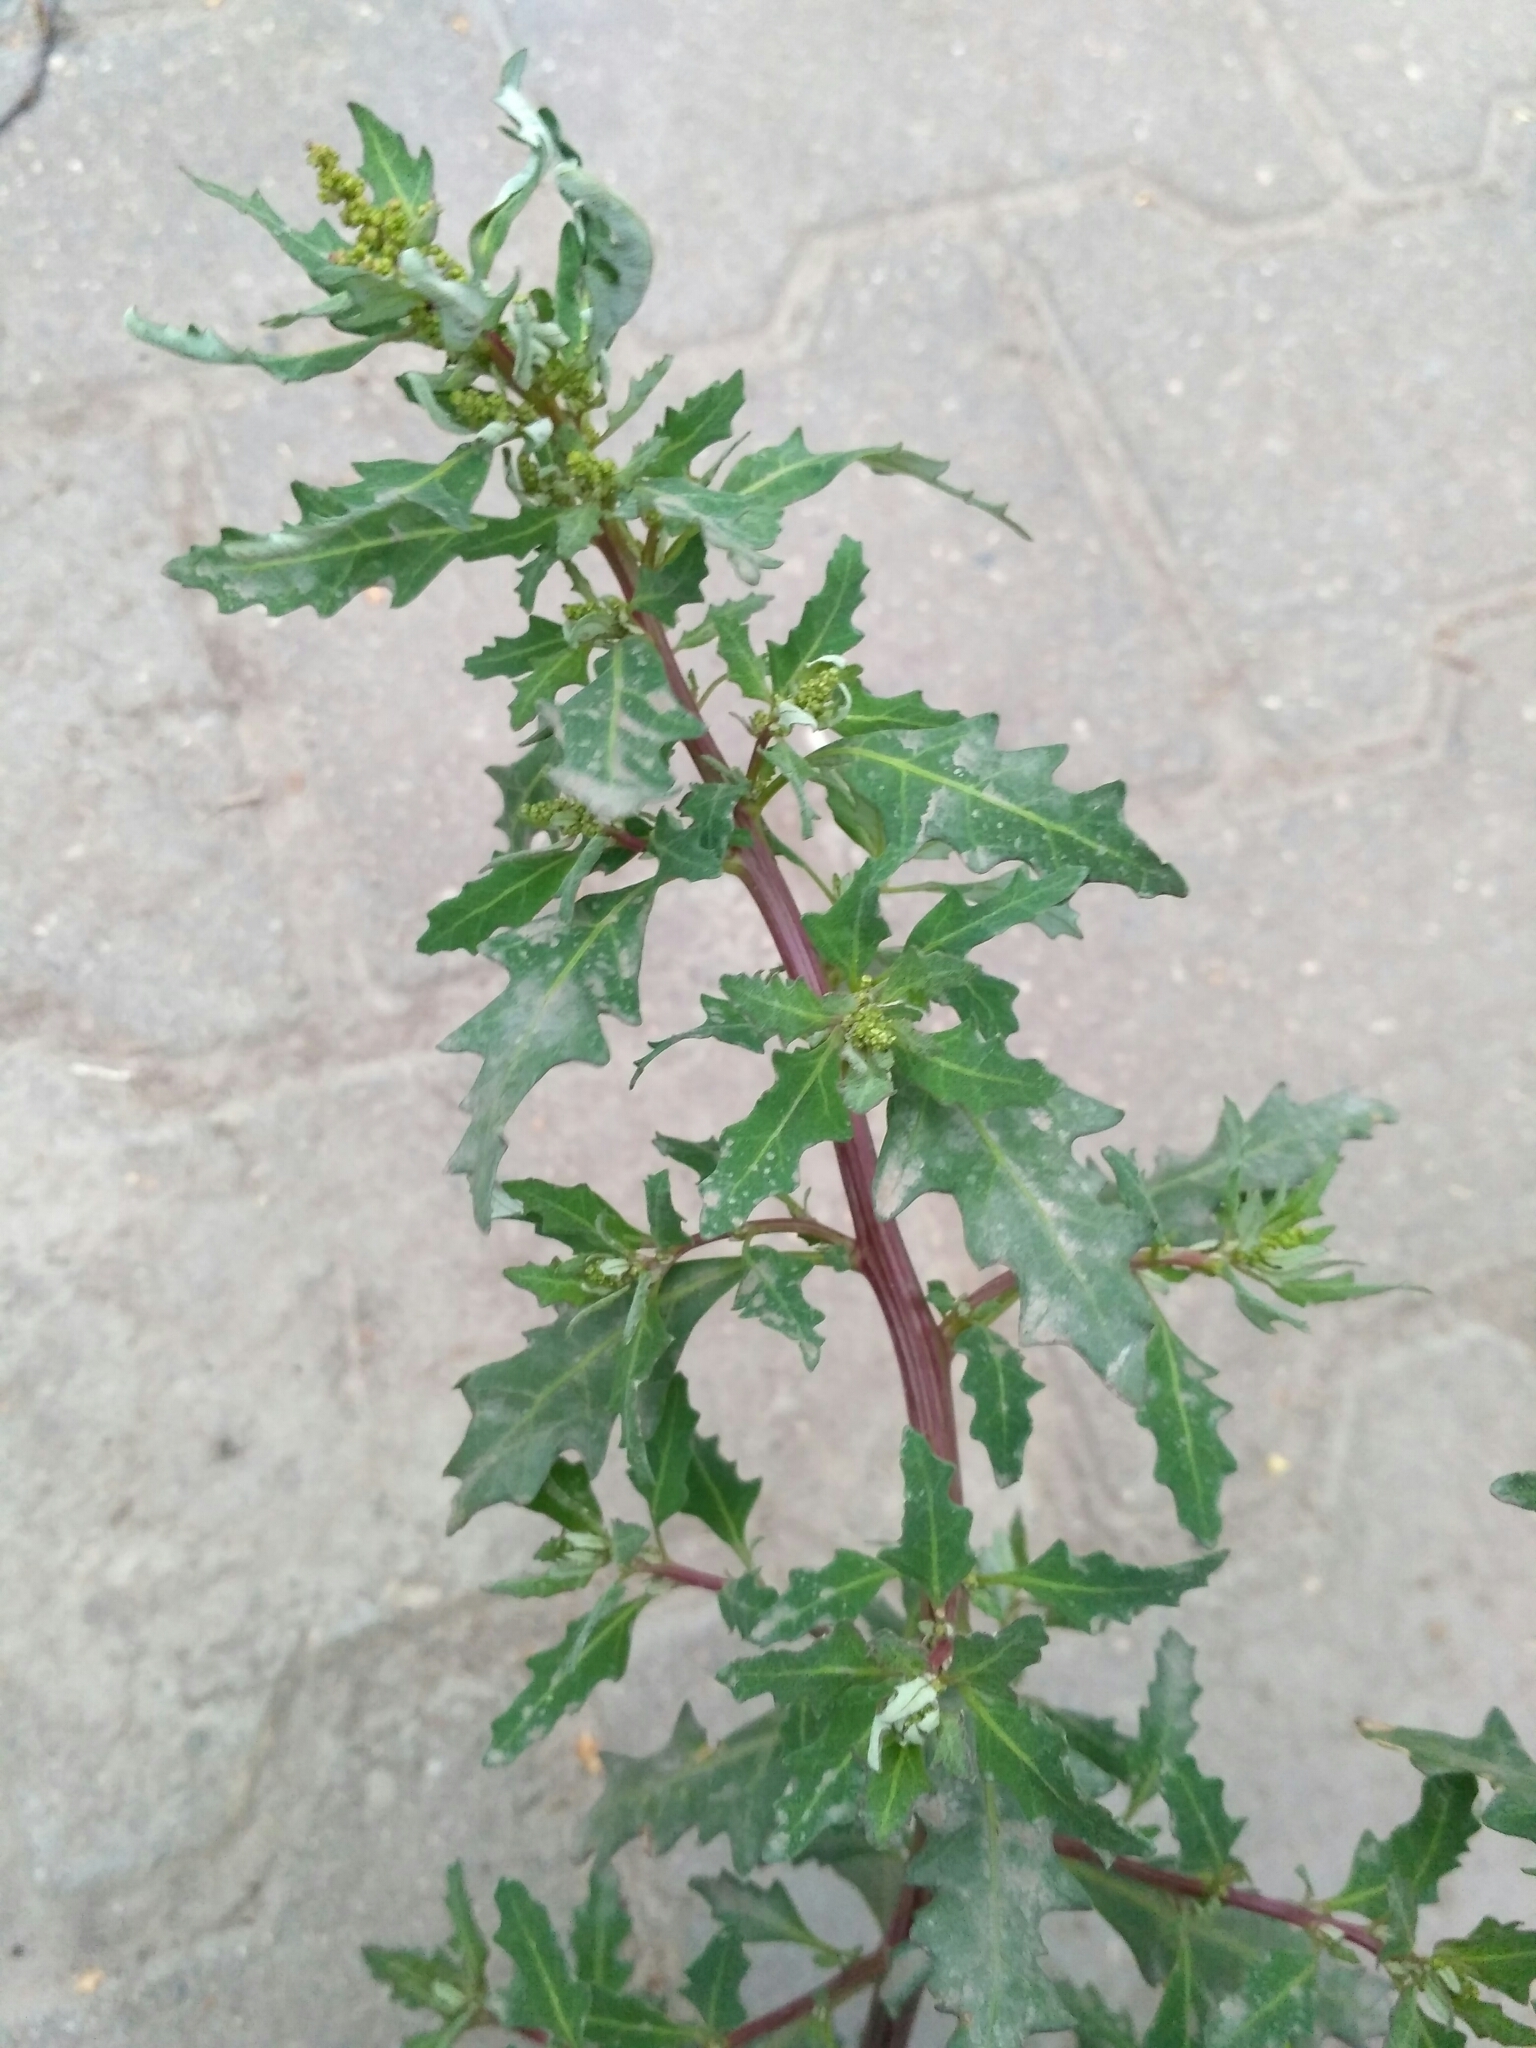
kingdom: Plantae
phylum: Tracheophyta
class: Magnoliopsida
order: Caryophyllales
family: Amaranthaceae
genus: Oxybasis
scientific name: Oxybasis glauca
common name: Glaucous goosefoot
